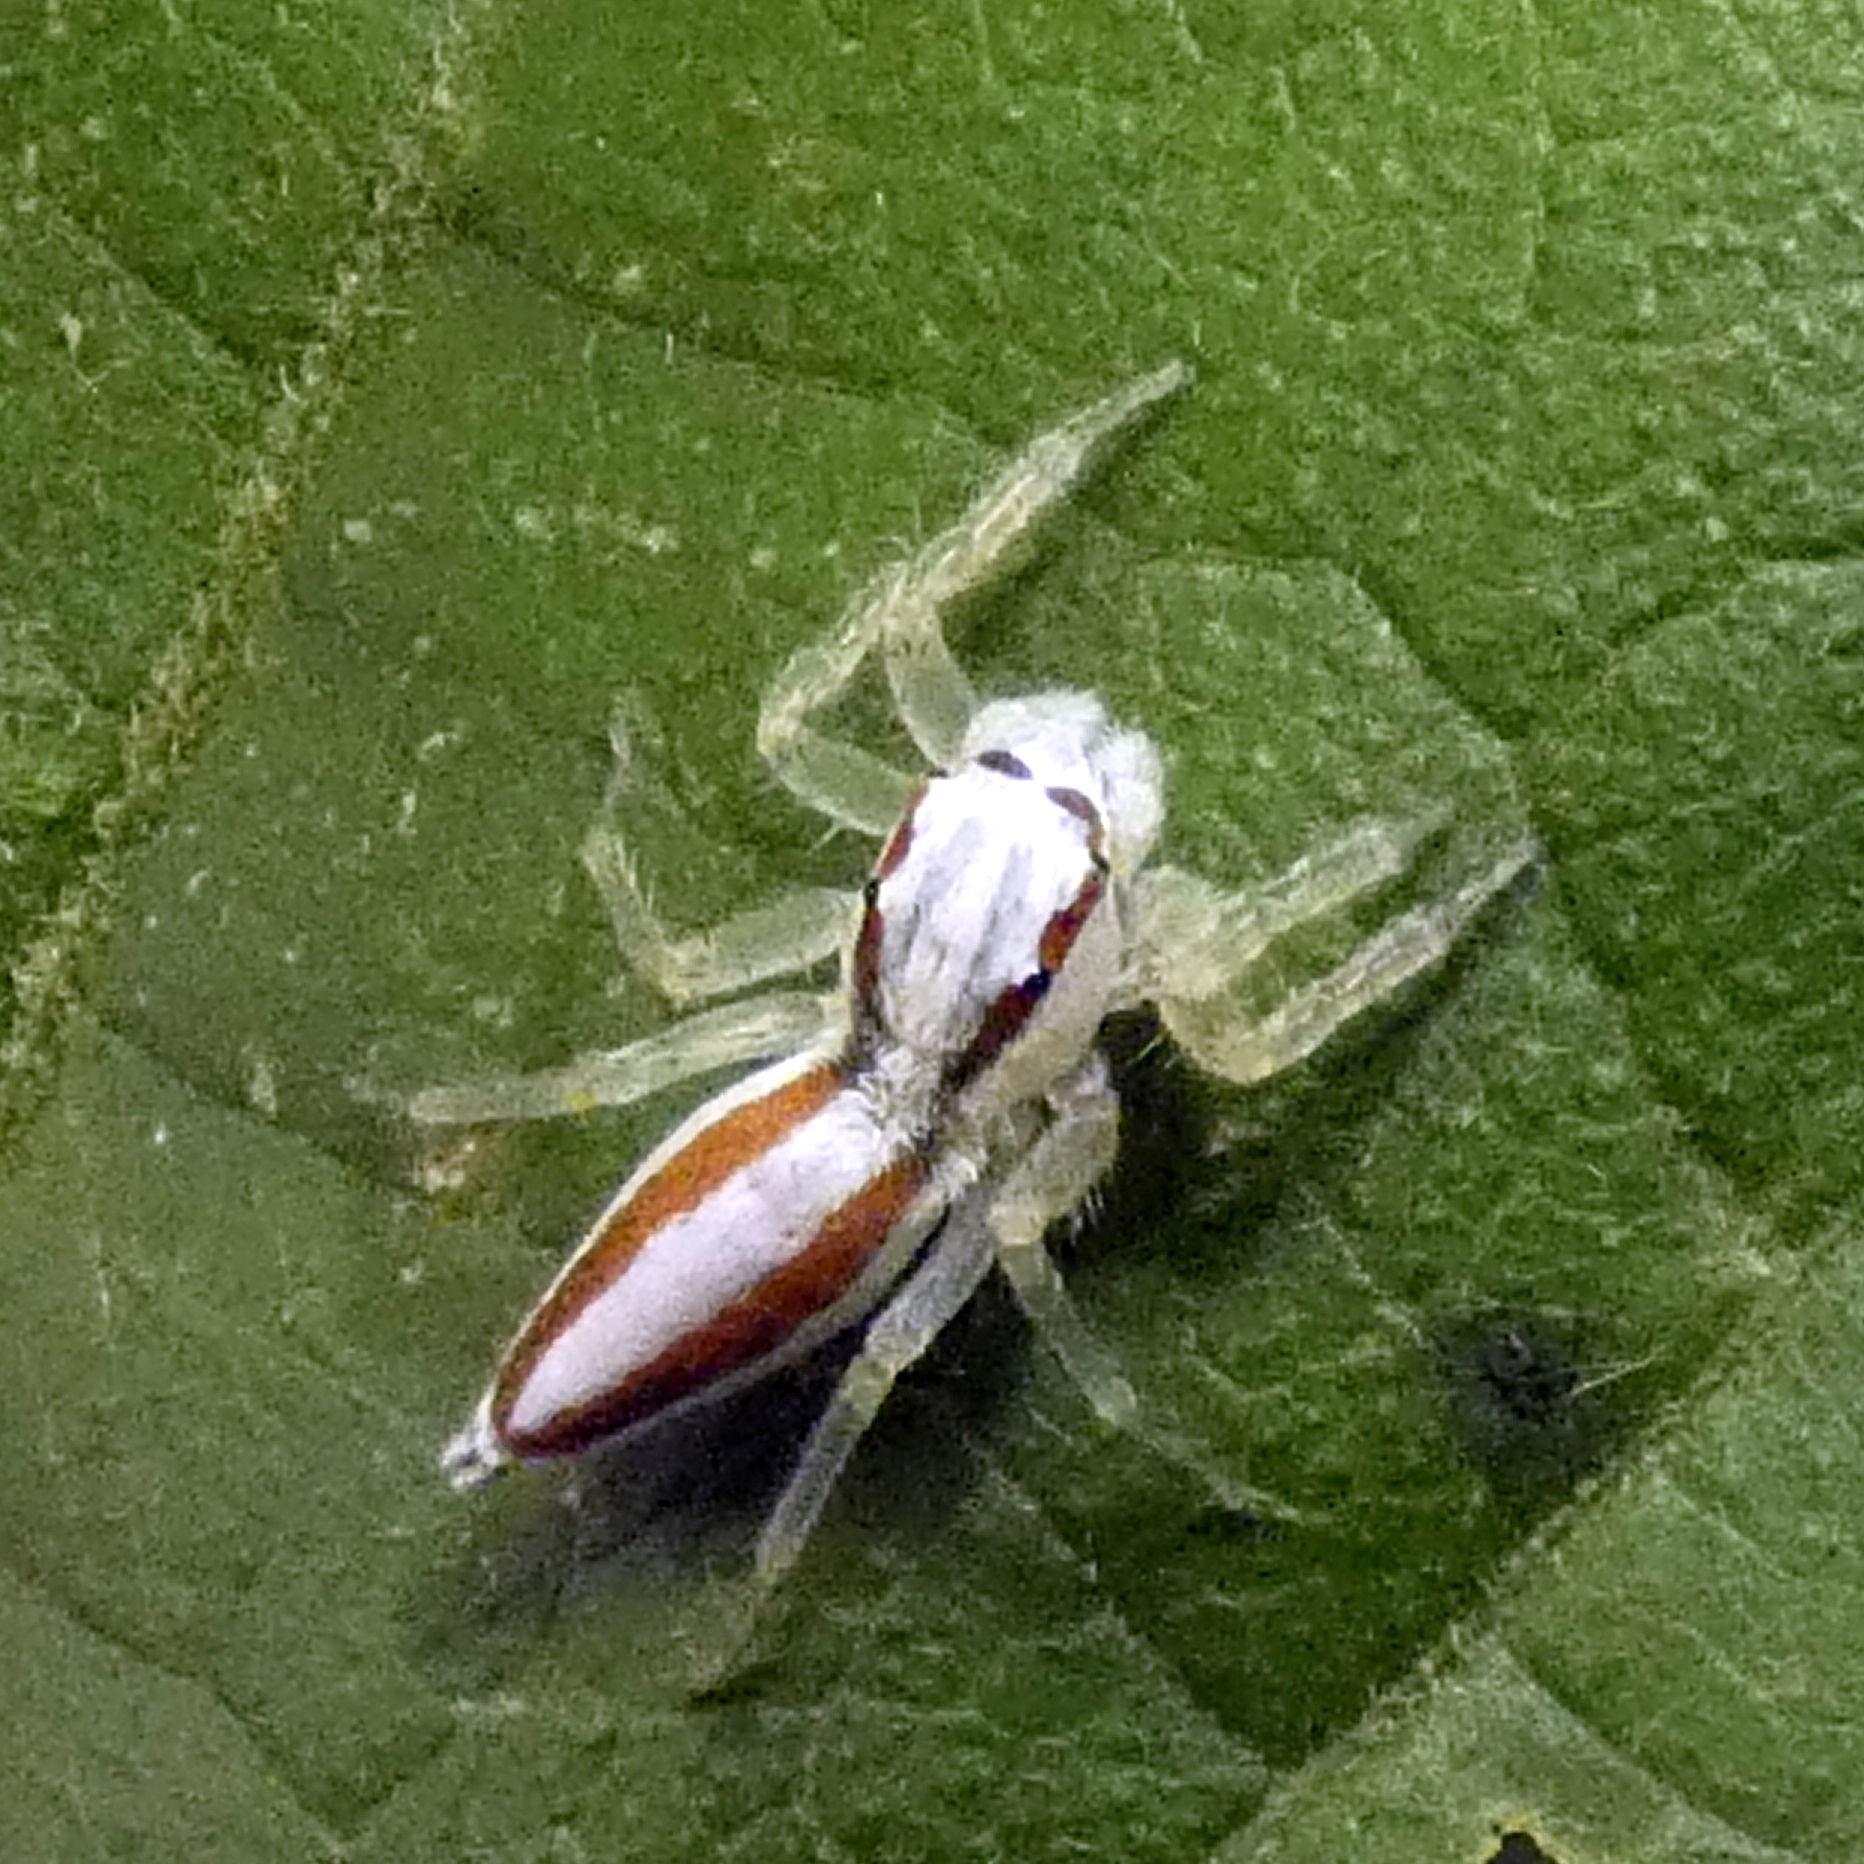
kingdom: Animalia
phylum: Arthropoda
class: Arachnida
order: Araneae
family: Salticidae
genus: Chira
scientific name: Chira trivittata
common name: Jumping spiders
